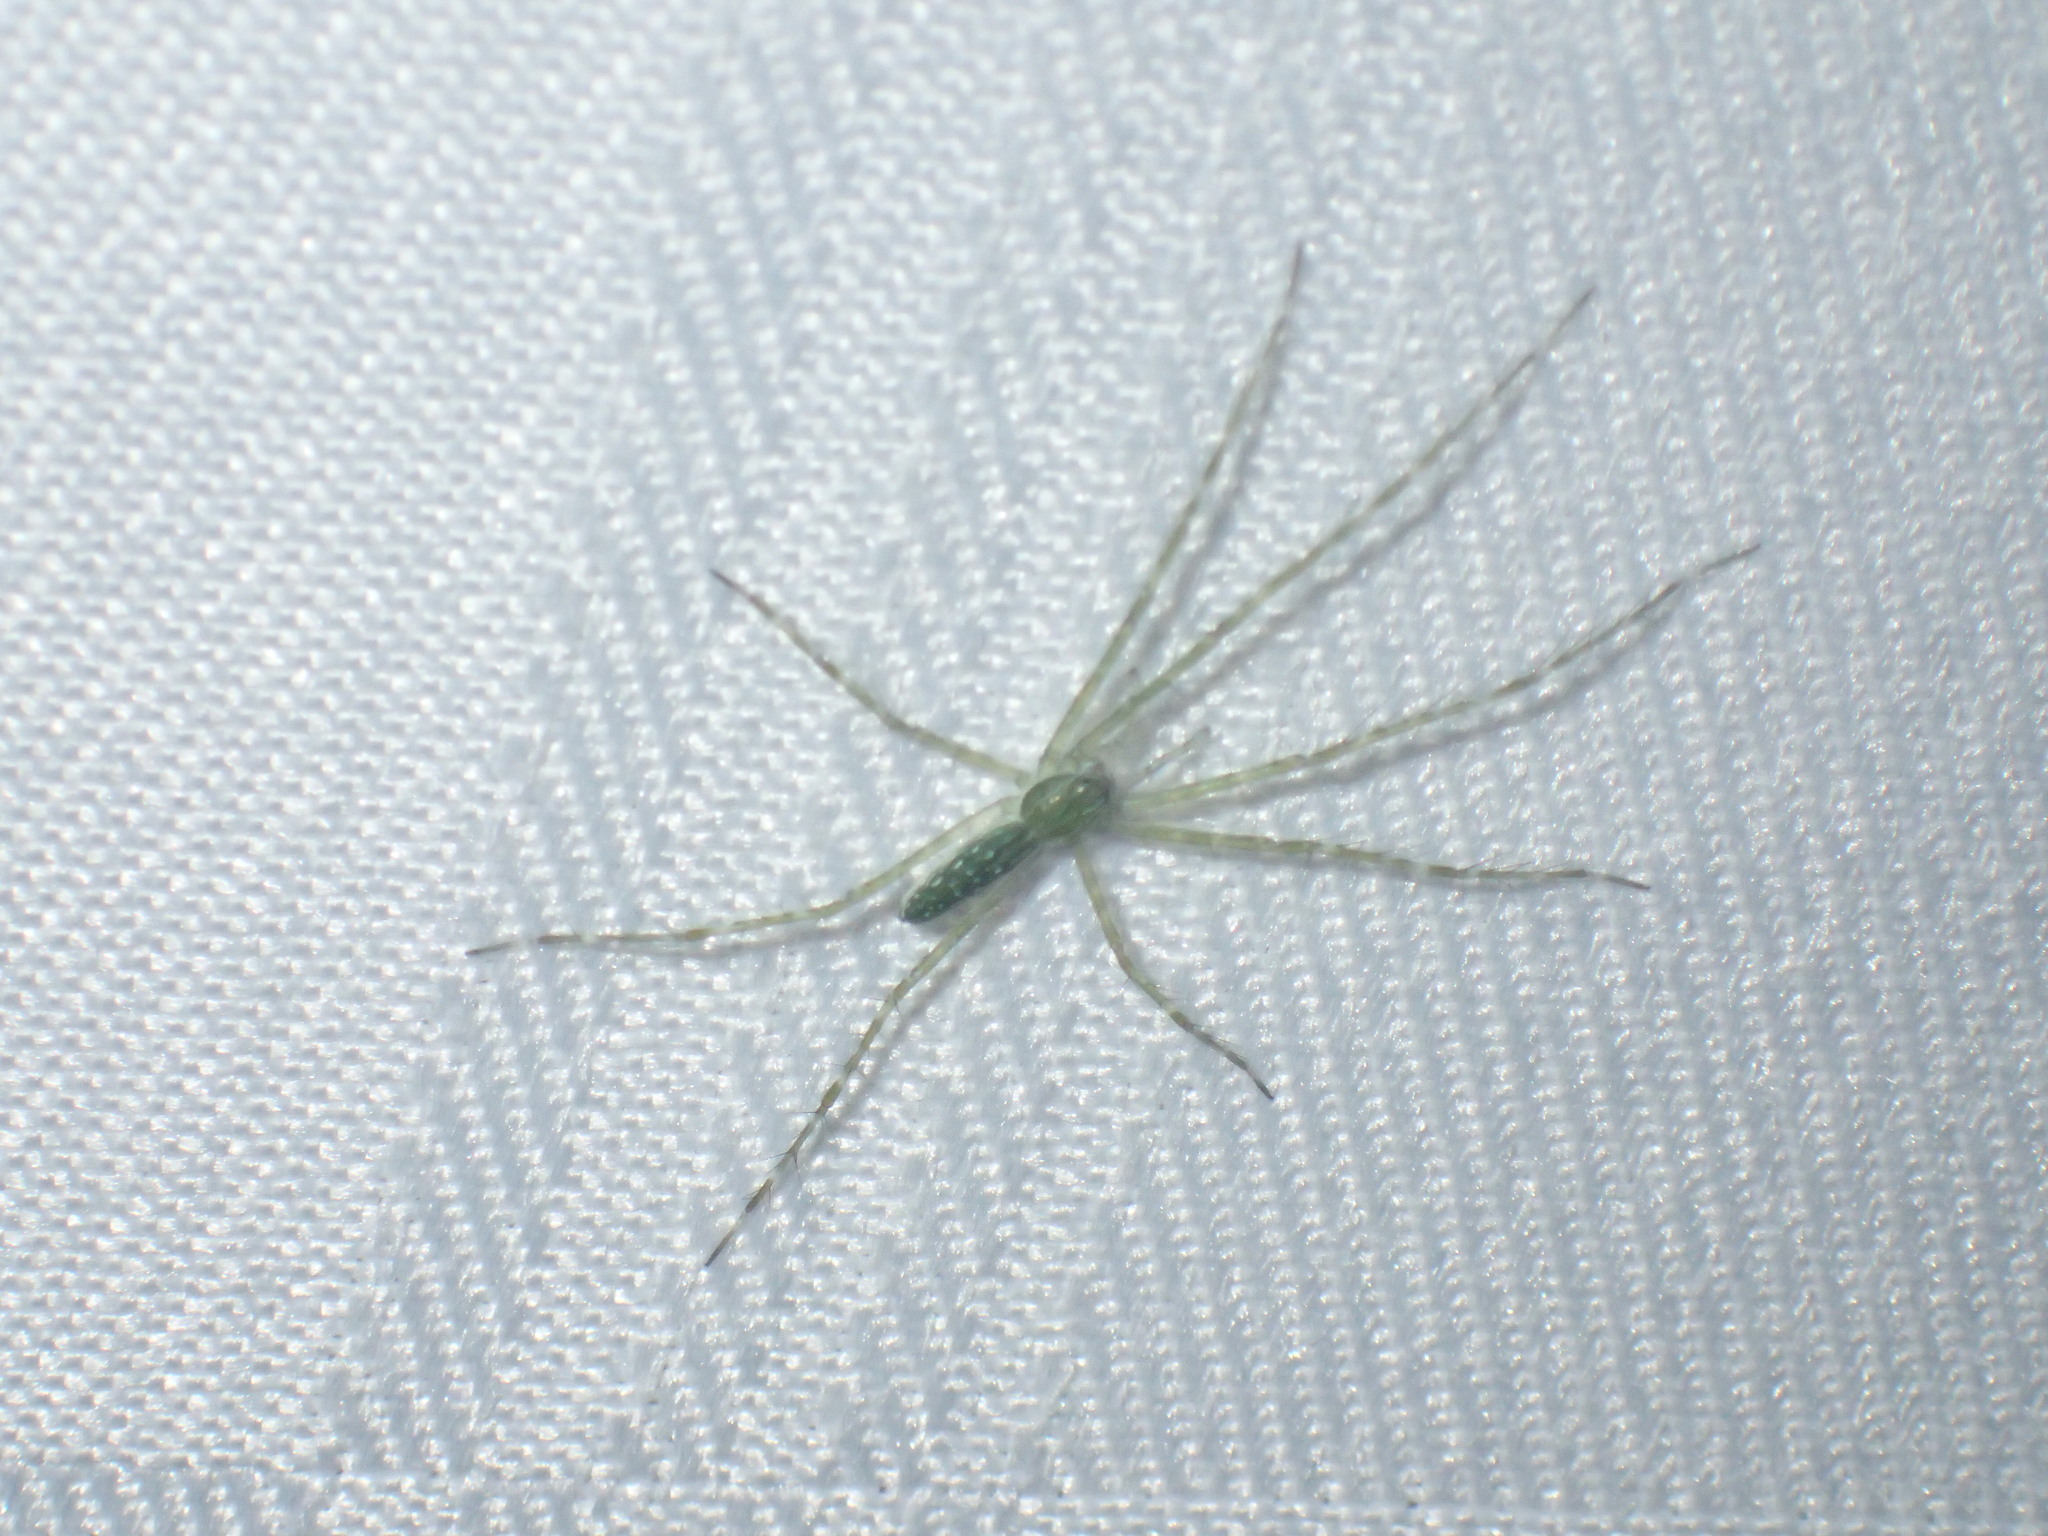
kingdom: Animalia
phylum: Arthropoda
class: Arachnida
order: Araneae
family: Pisauridae
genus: Hygropoda
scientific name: Hygropoda tangana
